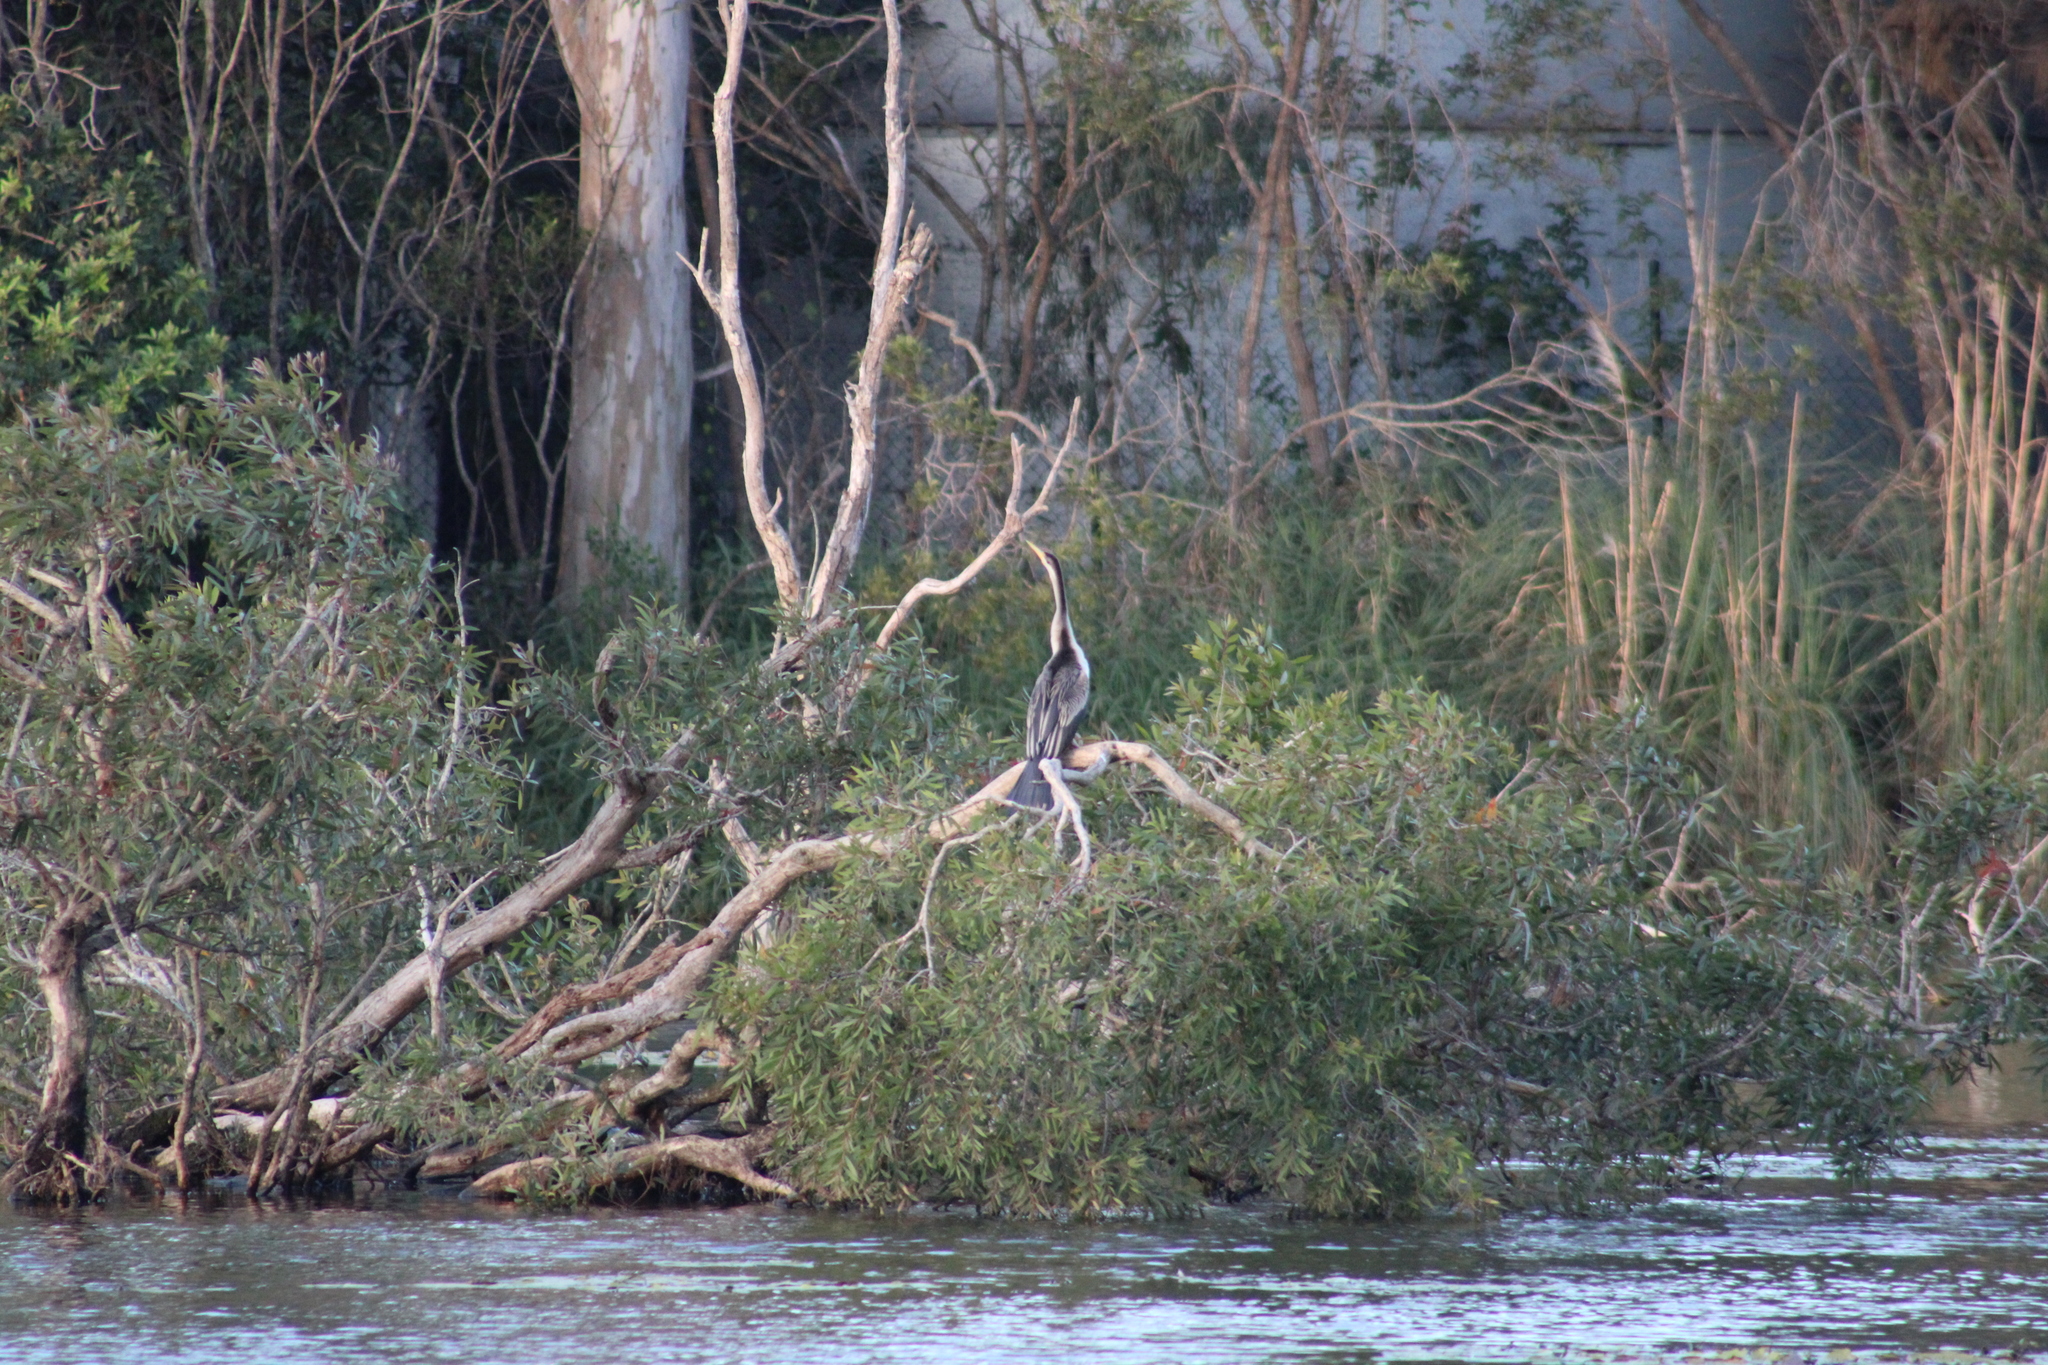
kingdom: Animalia
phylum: Chordata
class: Aves
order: Suliformes
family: Anhingidae
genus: Anhinga
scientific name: Anhinga novaehollandiae
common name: Australasian darter
